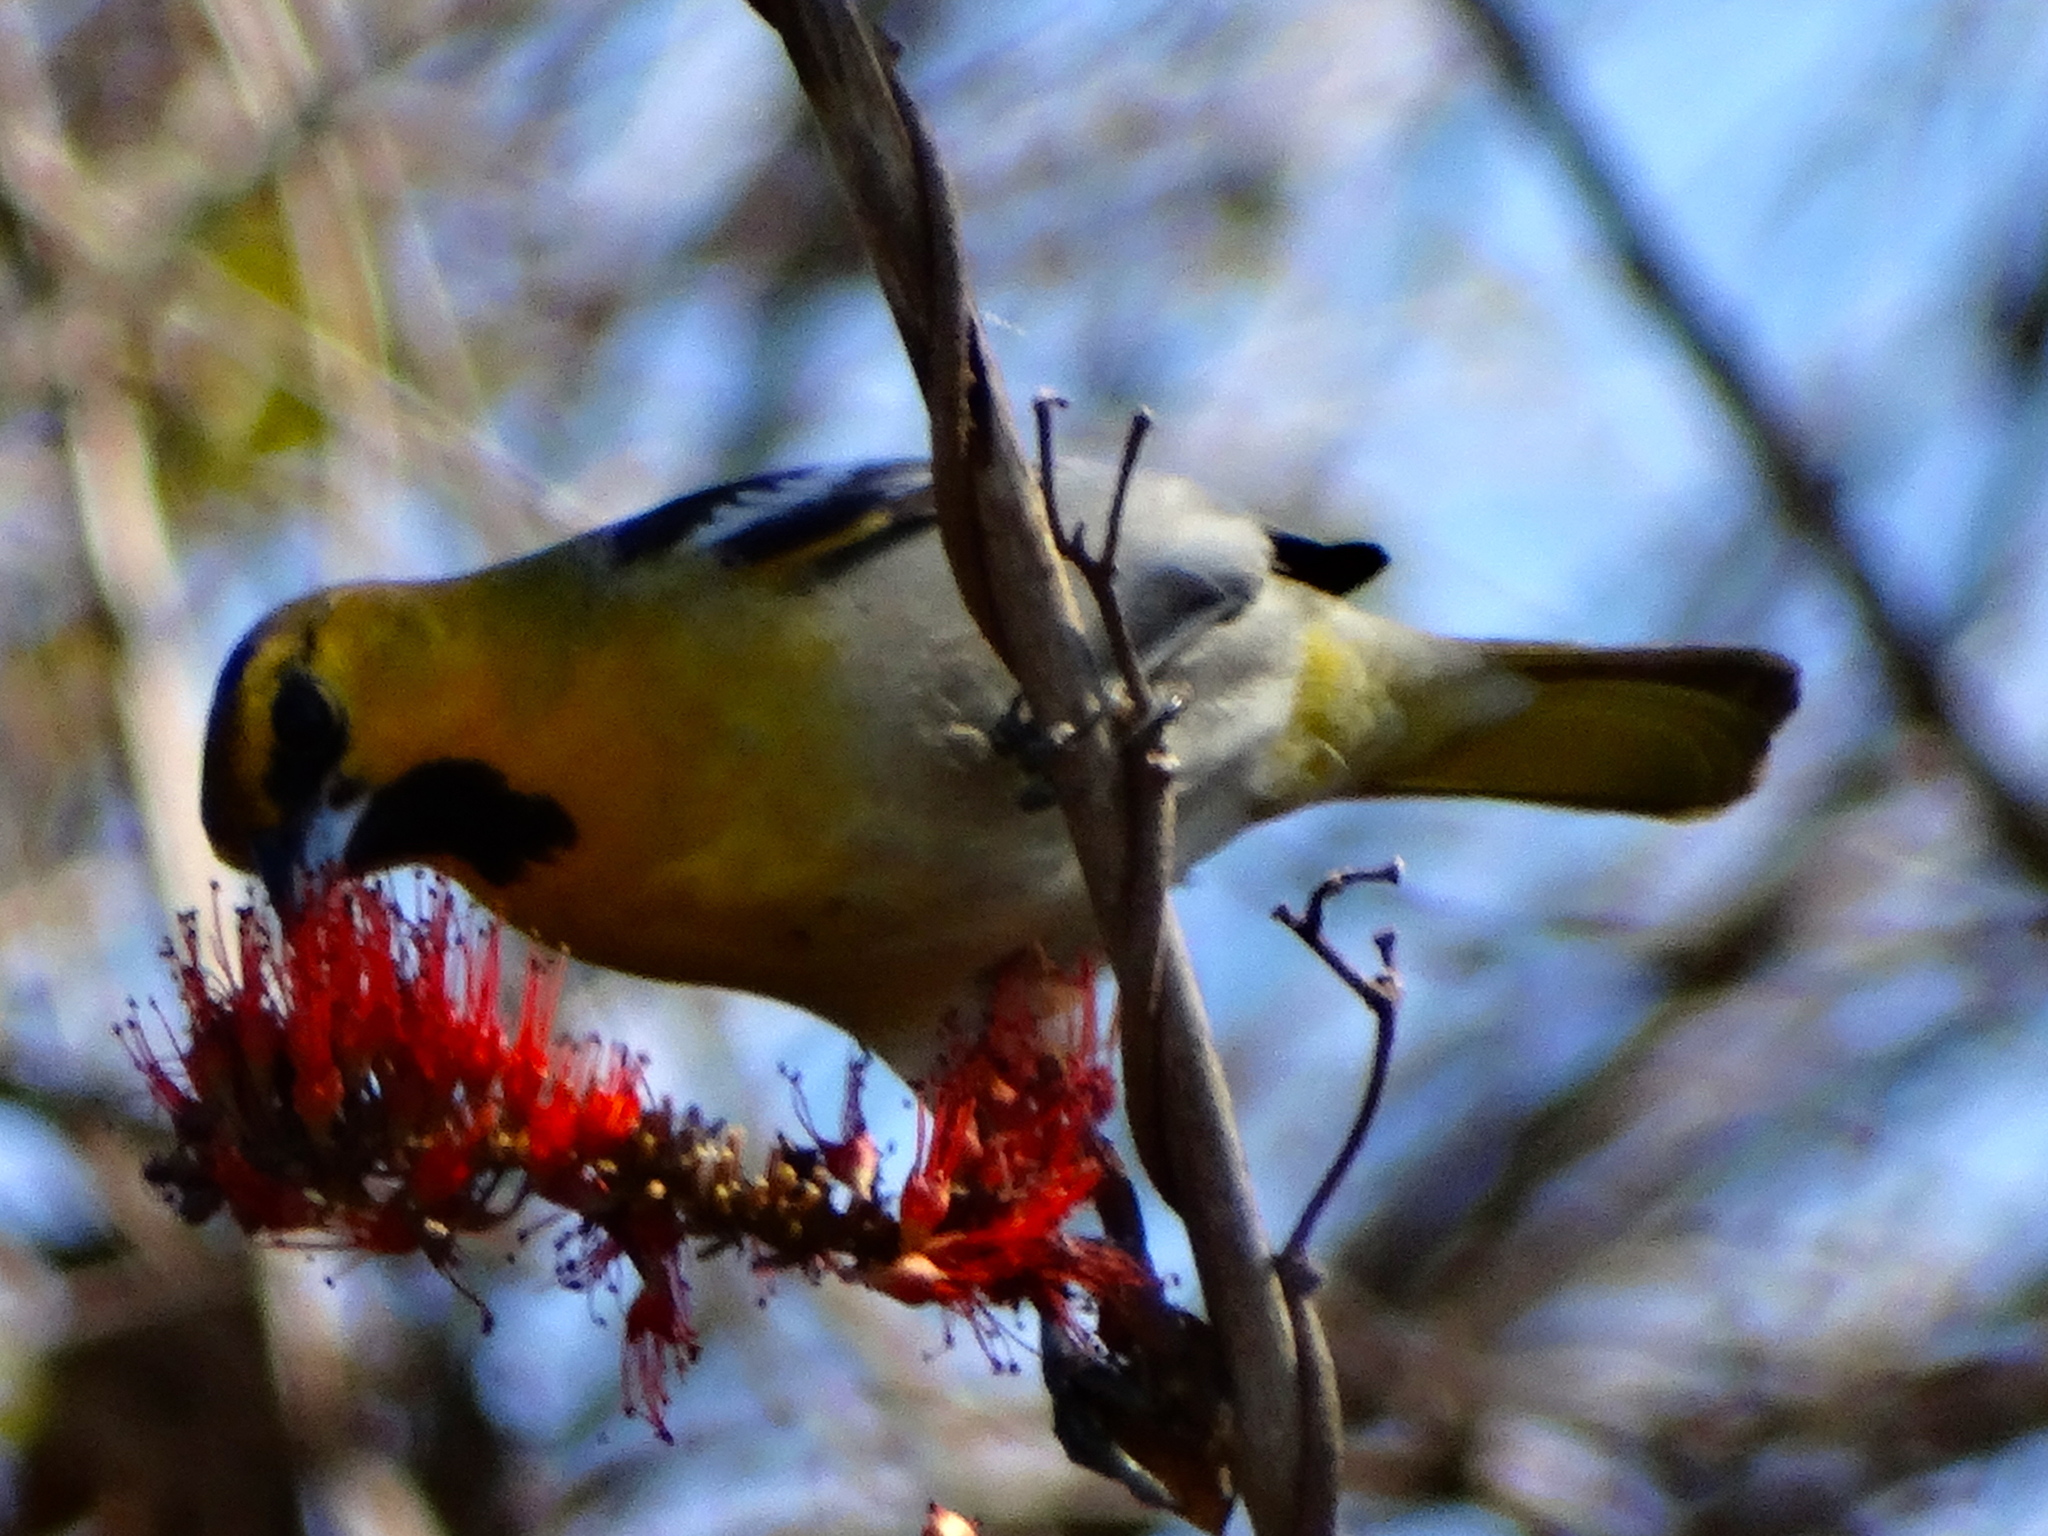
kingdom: Animalia
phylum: Chordata
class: Aves
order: Passeriformes
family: Icteridae
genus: Icterus
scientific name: Icterus bullockii
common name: Bullock's oriole
